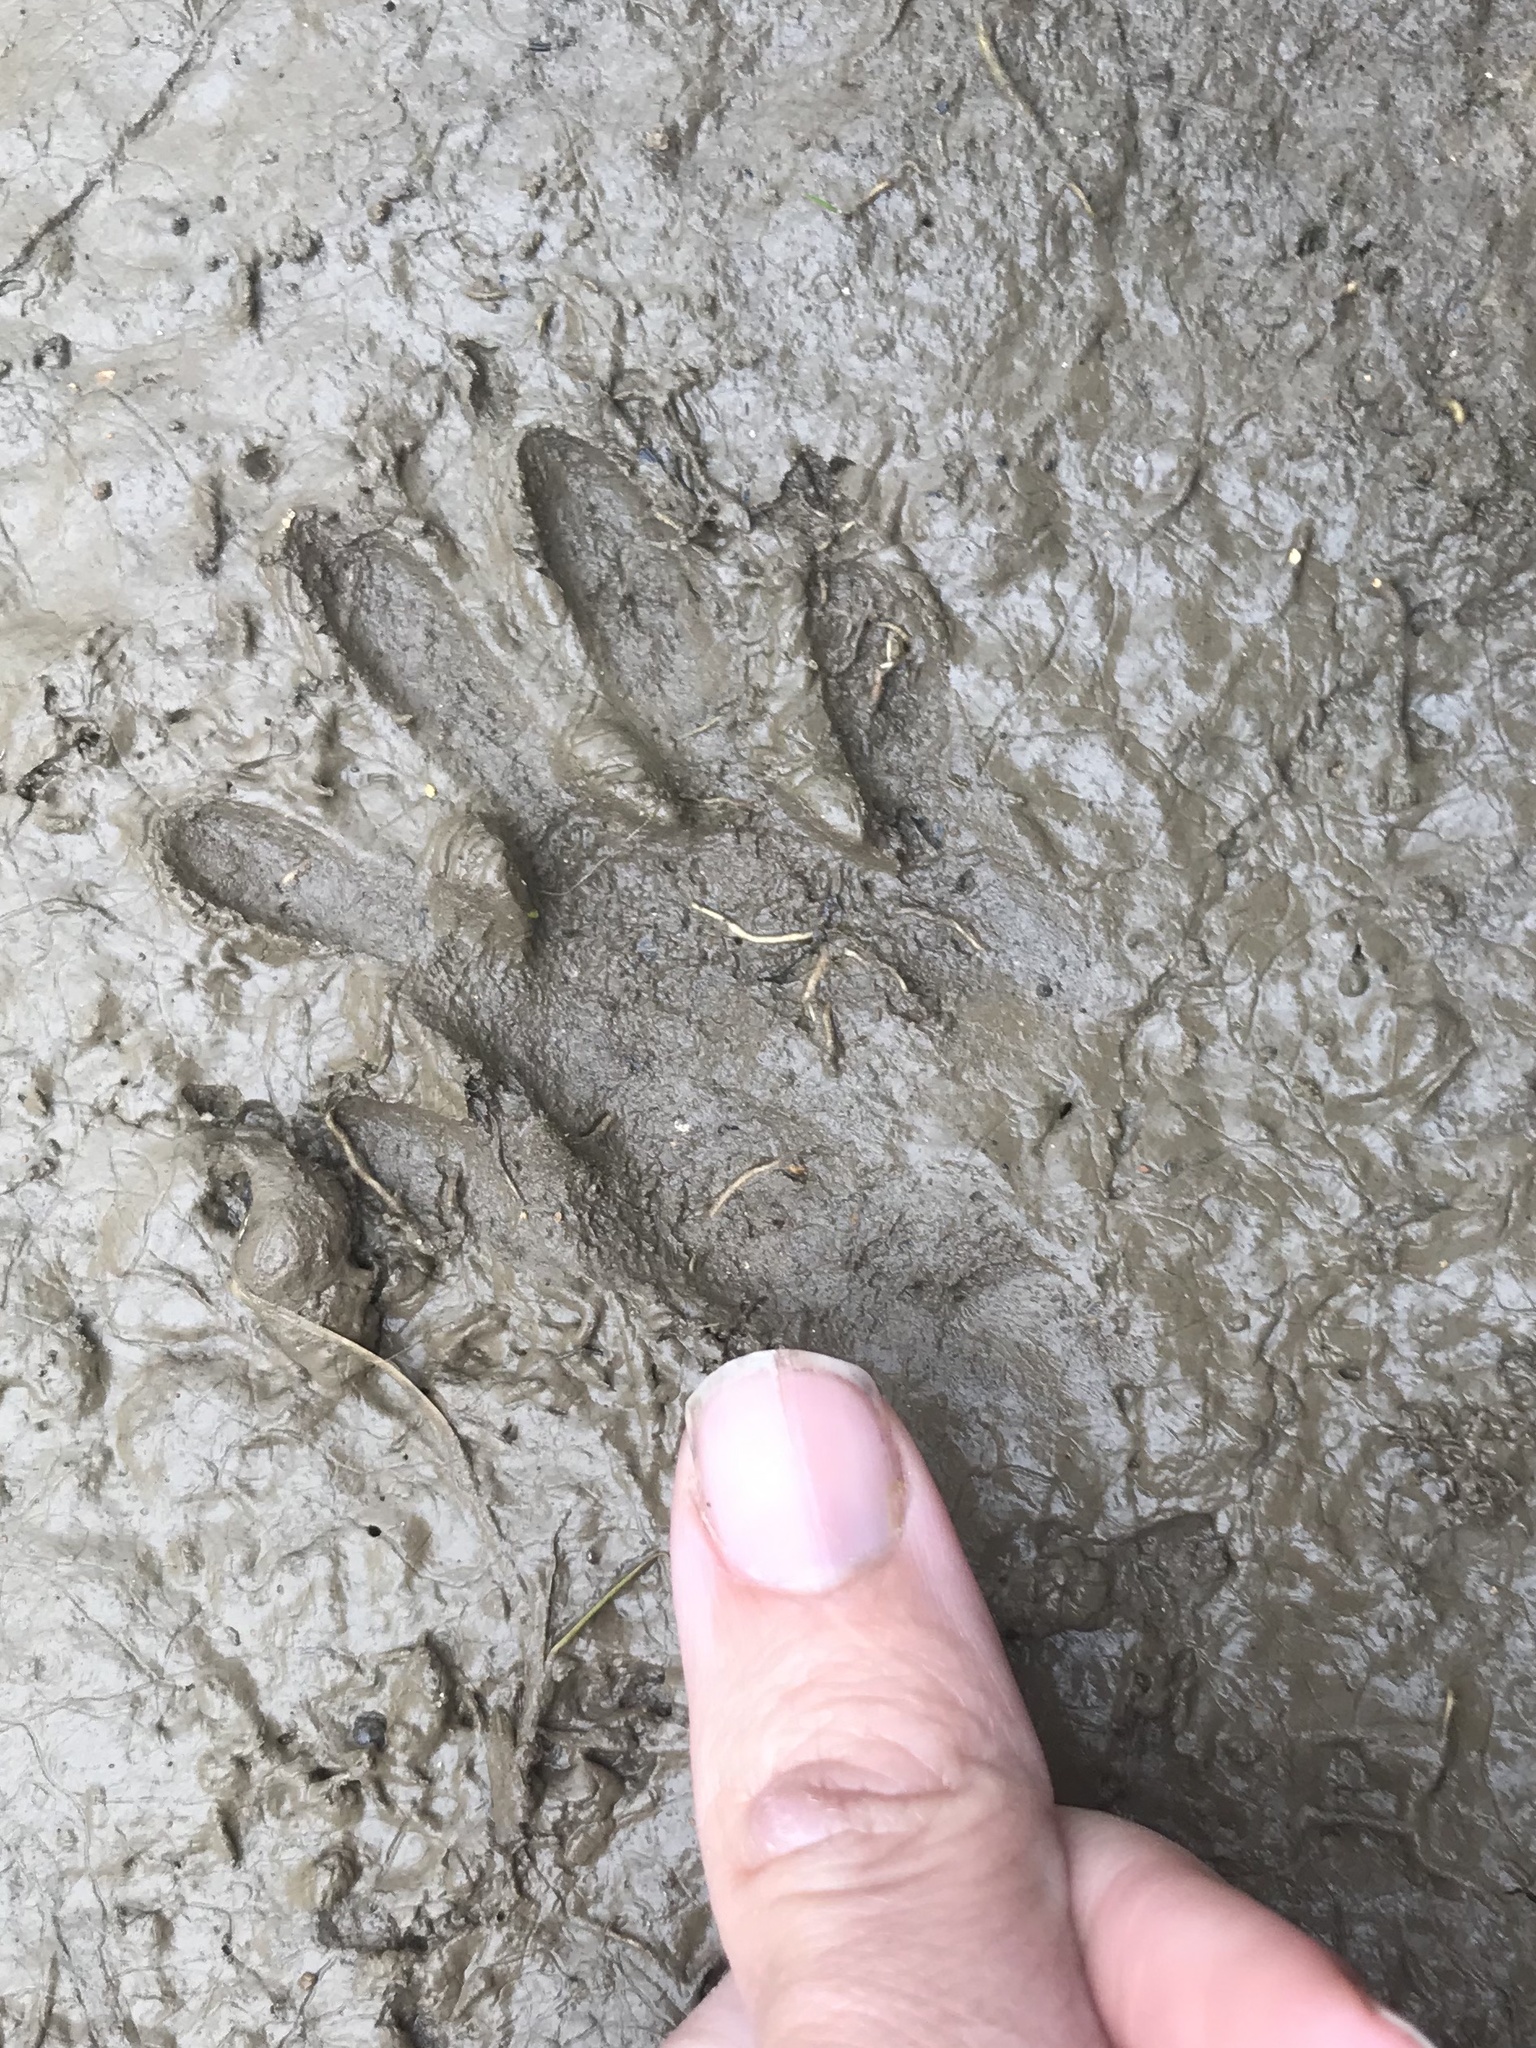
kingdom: Animalia
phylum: Chordata
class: Mammalia
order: Carnivora
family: Procyonidae
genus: Procyon
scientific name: Procyon lotor
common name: Raccoon
